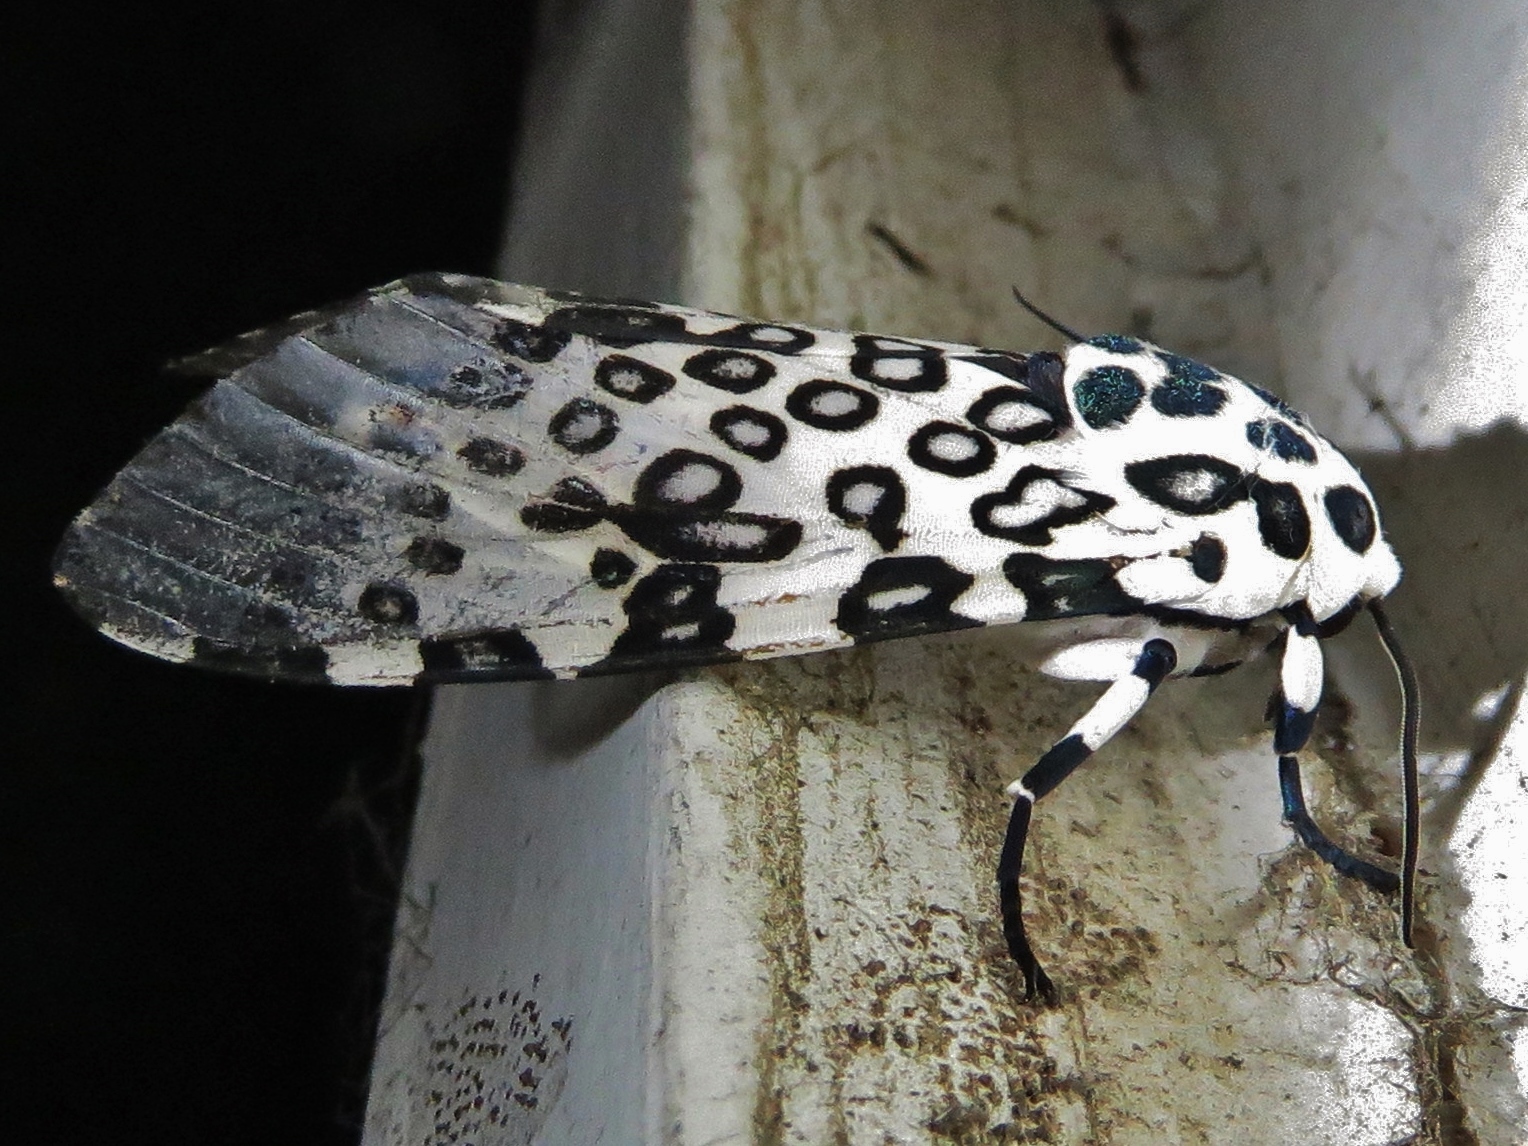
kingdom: Animalia
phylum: Arthropoda
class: Insecta
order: Lepidoptera
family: Erebidae
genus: Hypercompe
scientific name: Hypercompe scribonia
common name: Giant leopard moth
